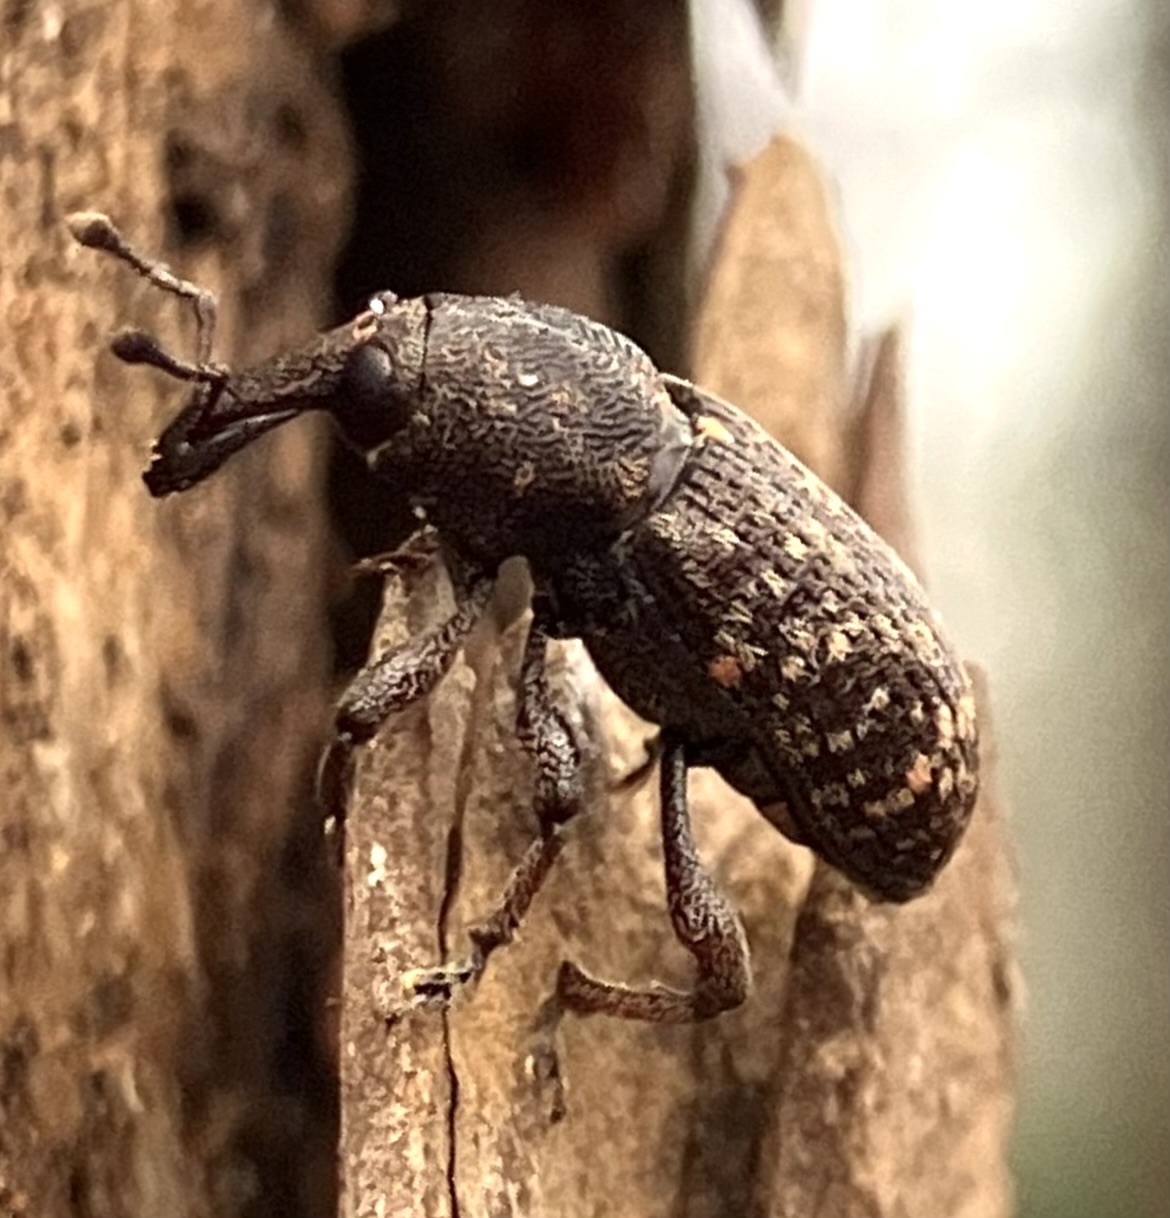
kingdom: Animalia
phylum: Arthropoda
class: Insecta
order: Coleoptera
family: Curculionidae
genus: Hylobius
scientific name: Hylobius pales
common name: Pales weevil
